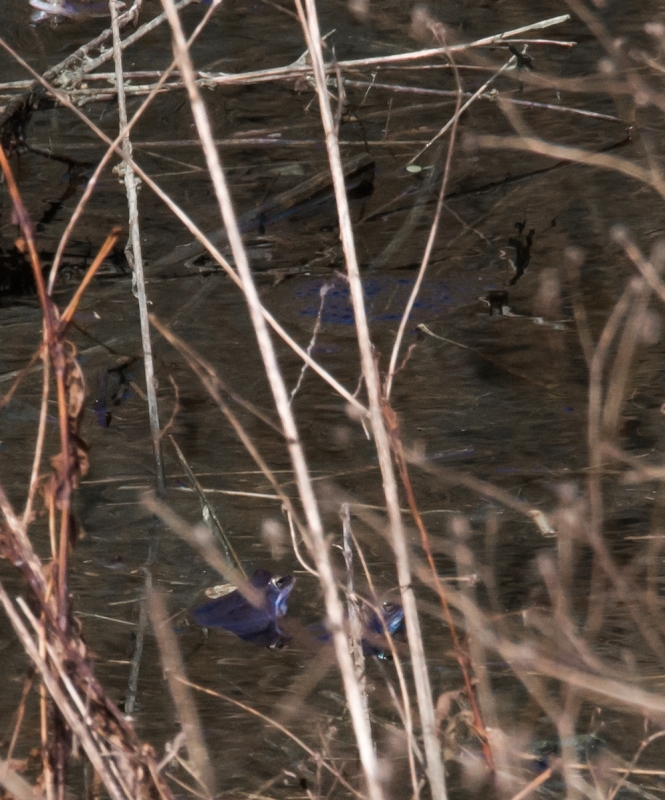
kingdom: Animalia
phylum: Chordata
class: Amphibia
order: Anura
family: Ranidae
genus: Rana
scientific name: Rana arvalis
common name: Moor frog
